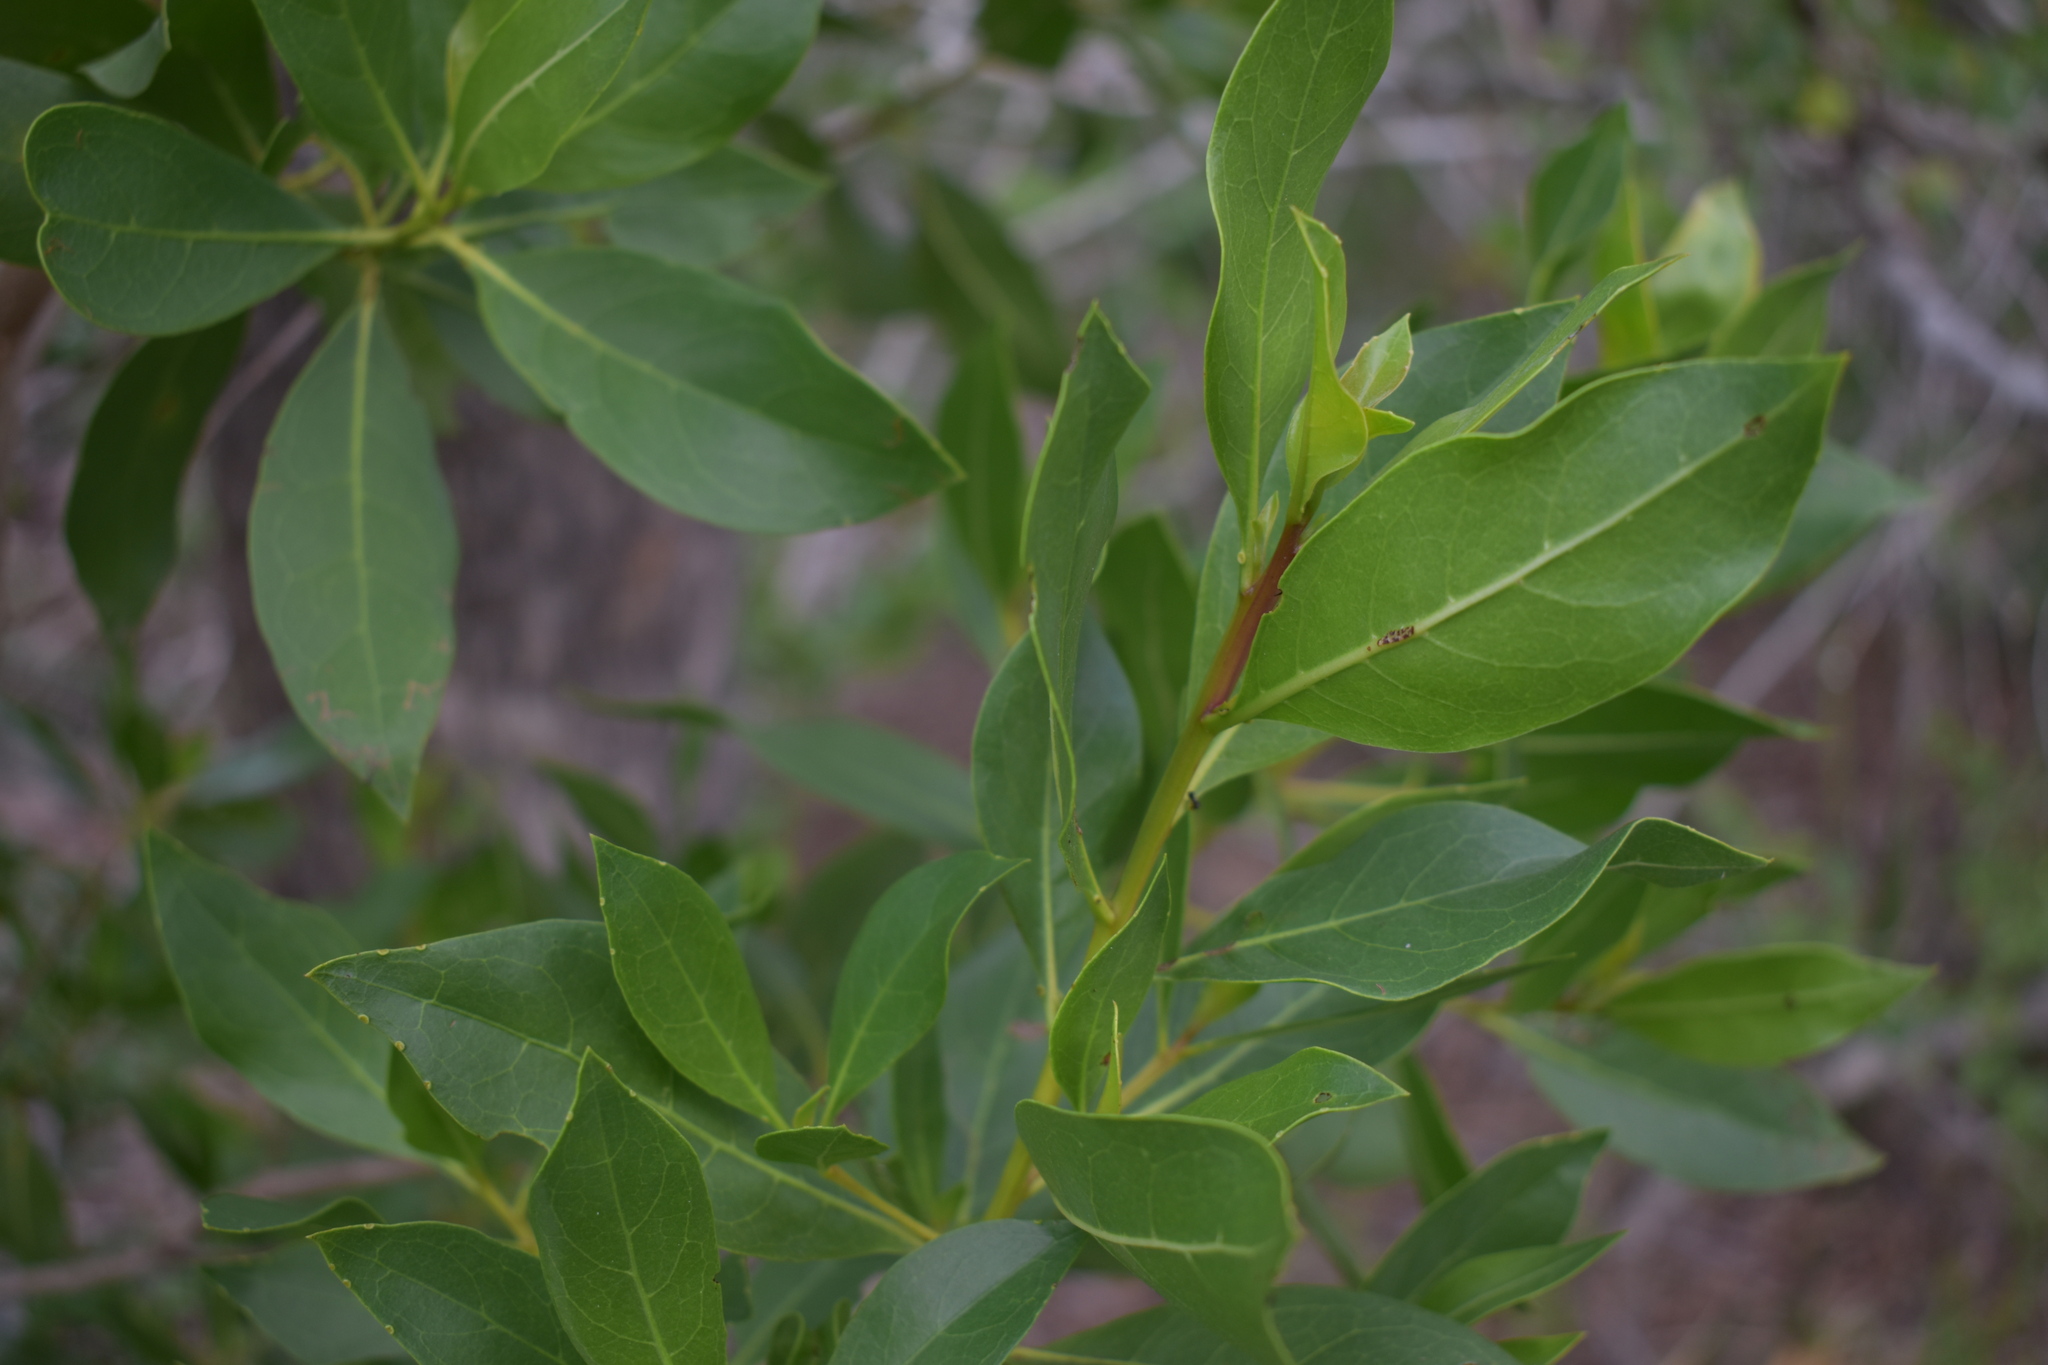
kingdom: Plantae
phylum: Tracheophyta
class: Magnoliopsida
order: Myrtales
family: Combretaceae
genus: Conocarpus
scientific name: Conocarpus erectus
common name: Button mangrove
